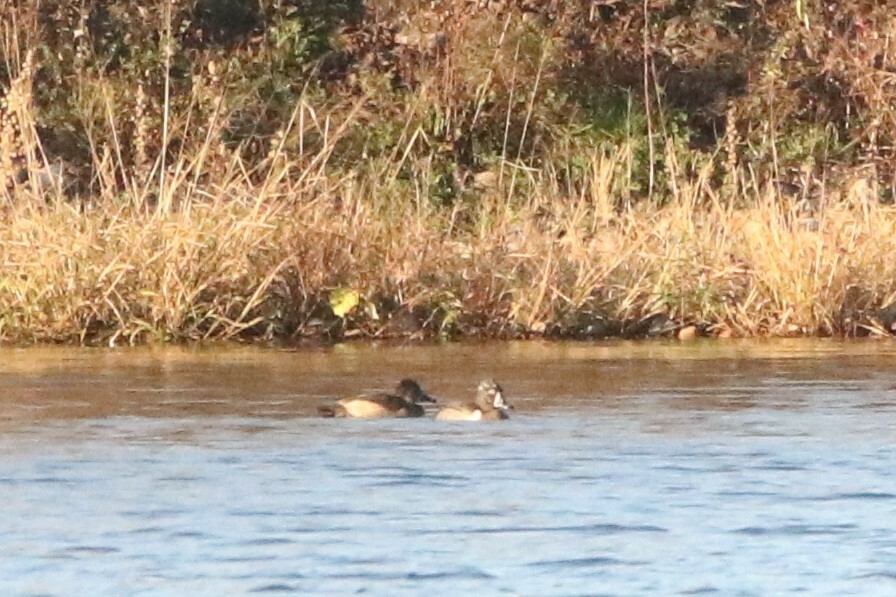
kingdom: Animalia
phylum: Chordata
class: Aves
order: Anseriformes
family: Anatidae
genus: Aythya
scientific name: Aythya collaris
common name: Ring-necked duck
